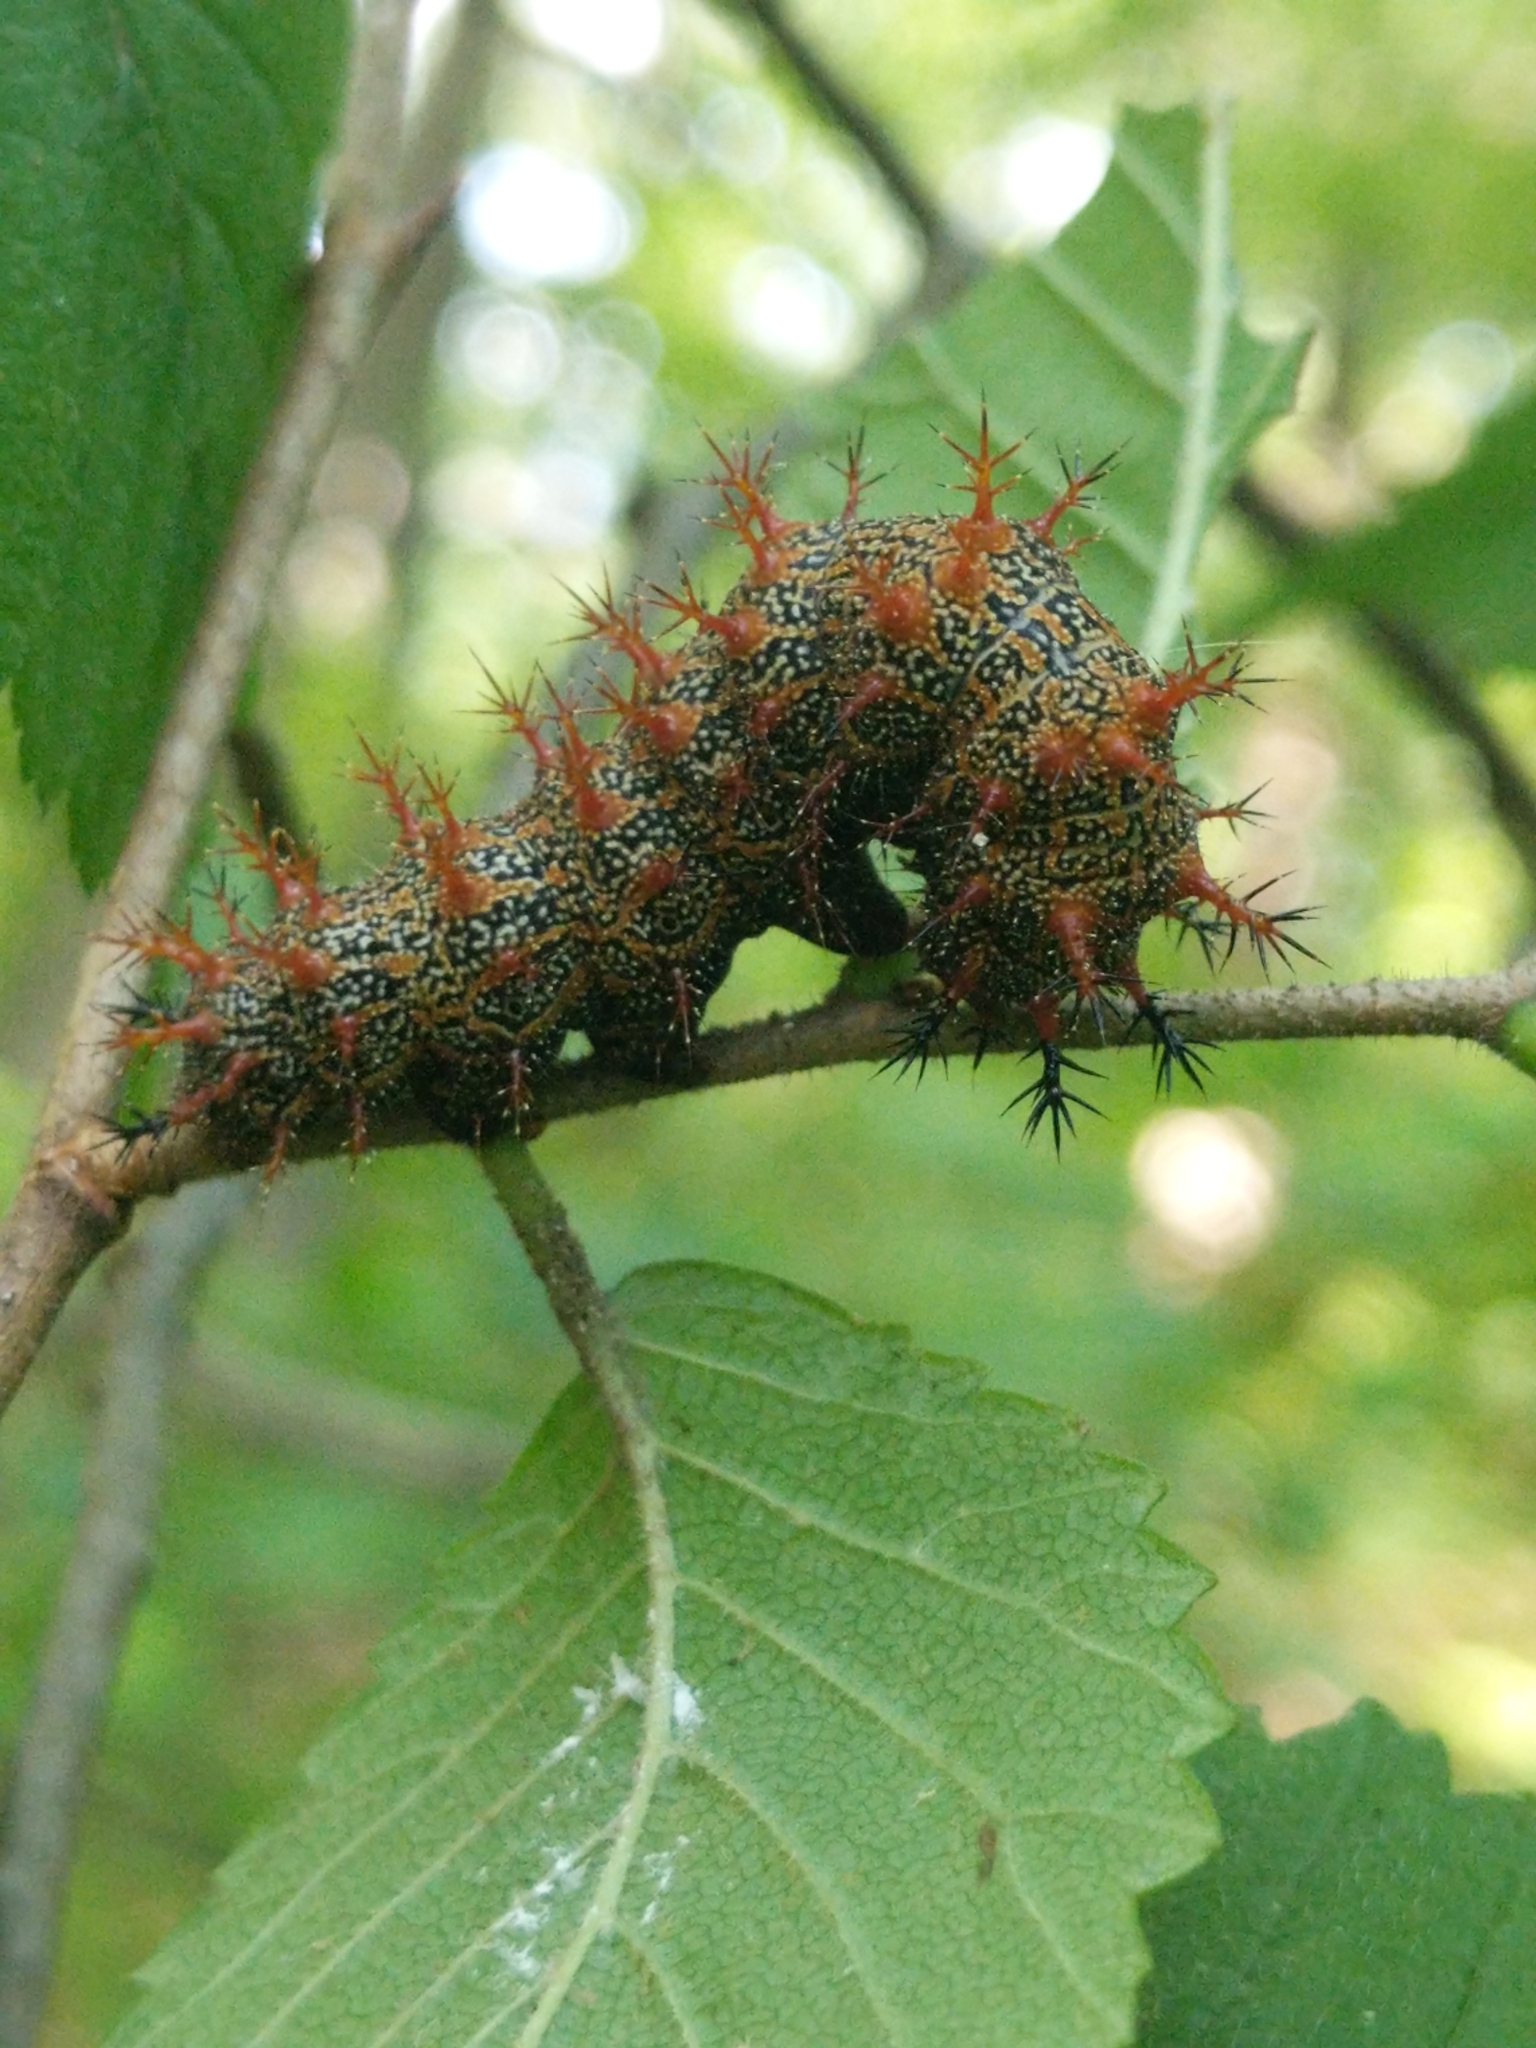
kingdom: Animalia
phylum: Arthropoda
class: Insecta
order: Lepidoptera
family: Nymphalidae
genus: Polygonia
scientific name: Polygonia interrogationis
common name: Question mark
